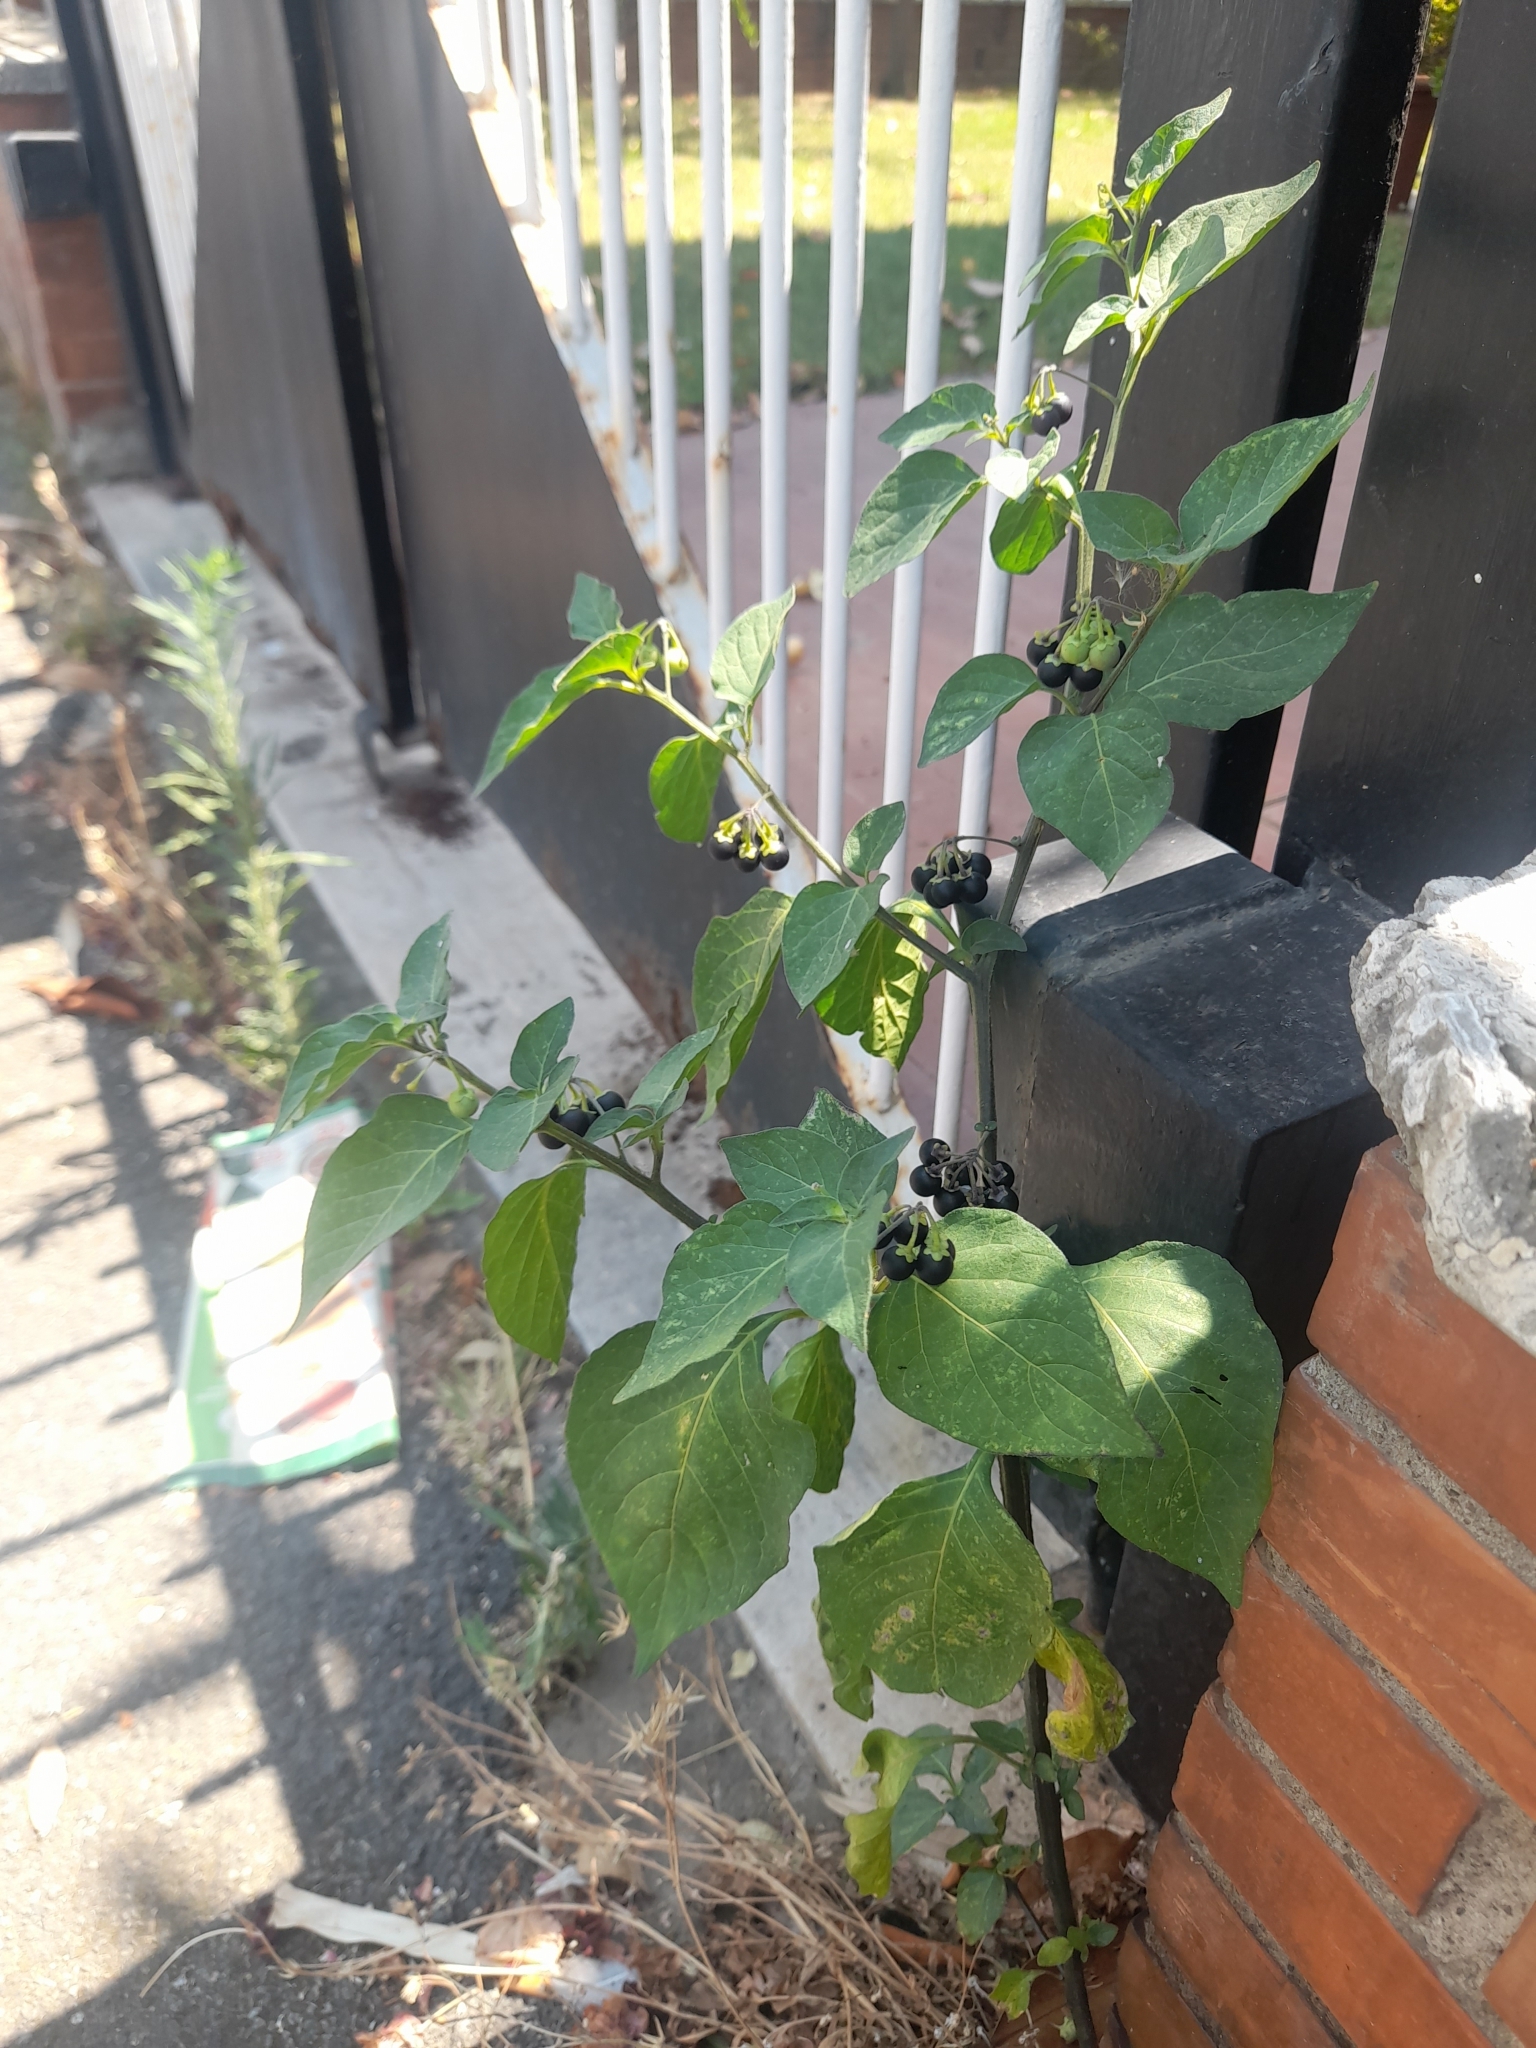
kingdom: Plantae
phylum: Tracheophyta
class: Magnoliopsida
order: Solanales
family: Solanaceae
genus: Solanum
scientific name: Solanum nigrum
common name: Black nightshade
